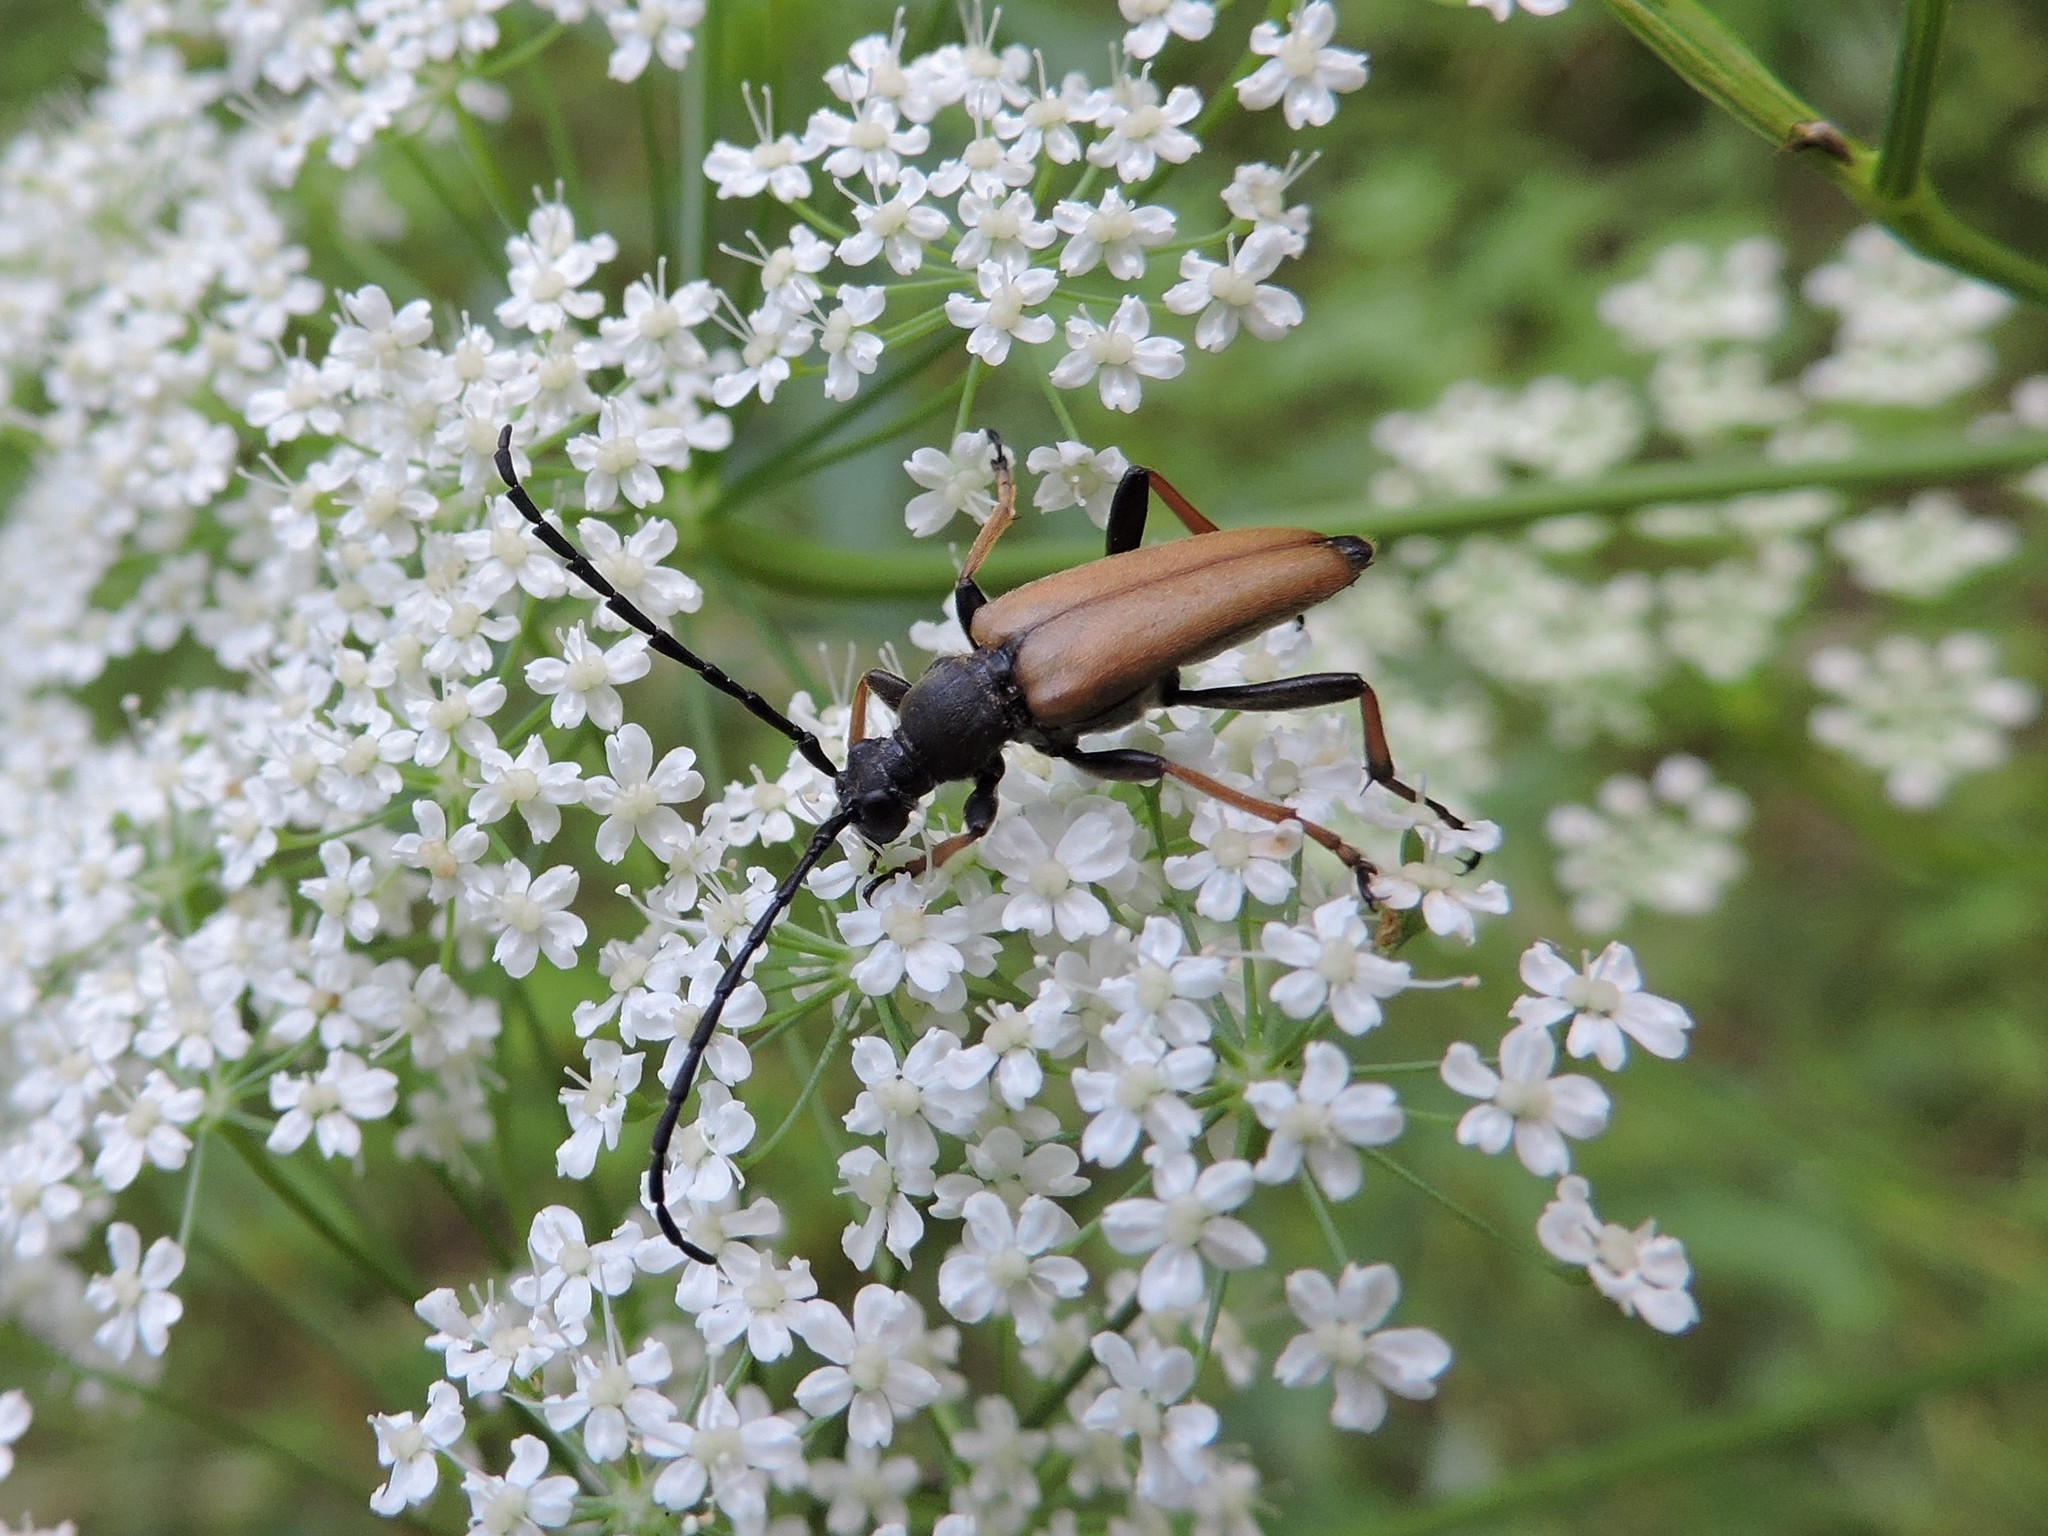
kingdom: Animalia
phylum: Arthropoda
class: Insecta
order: Coleoptera
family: Cerambycidae
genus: Stictoleptura
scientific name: Stictoleptura rubra
